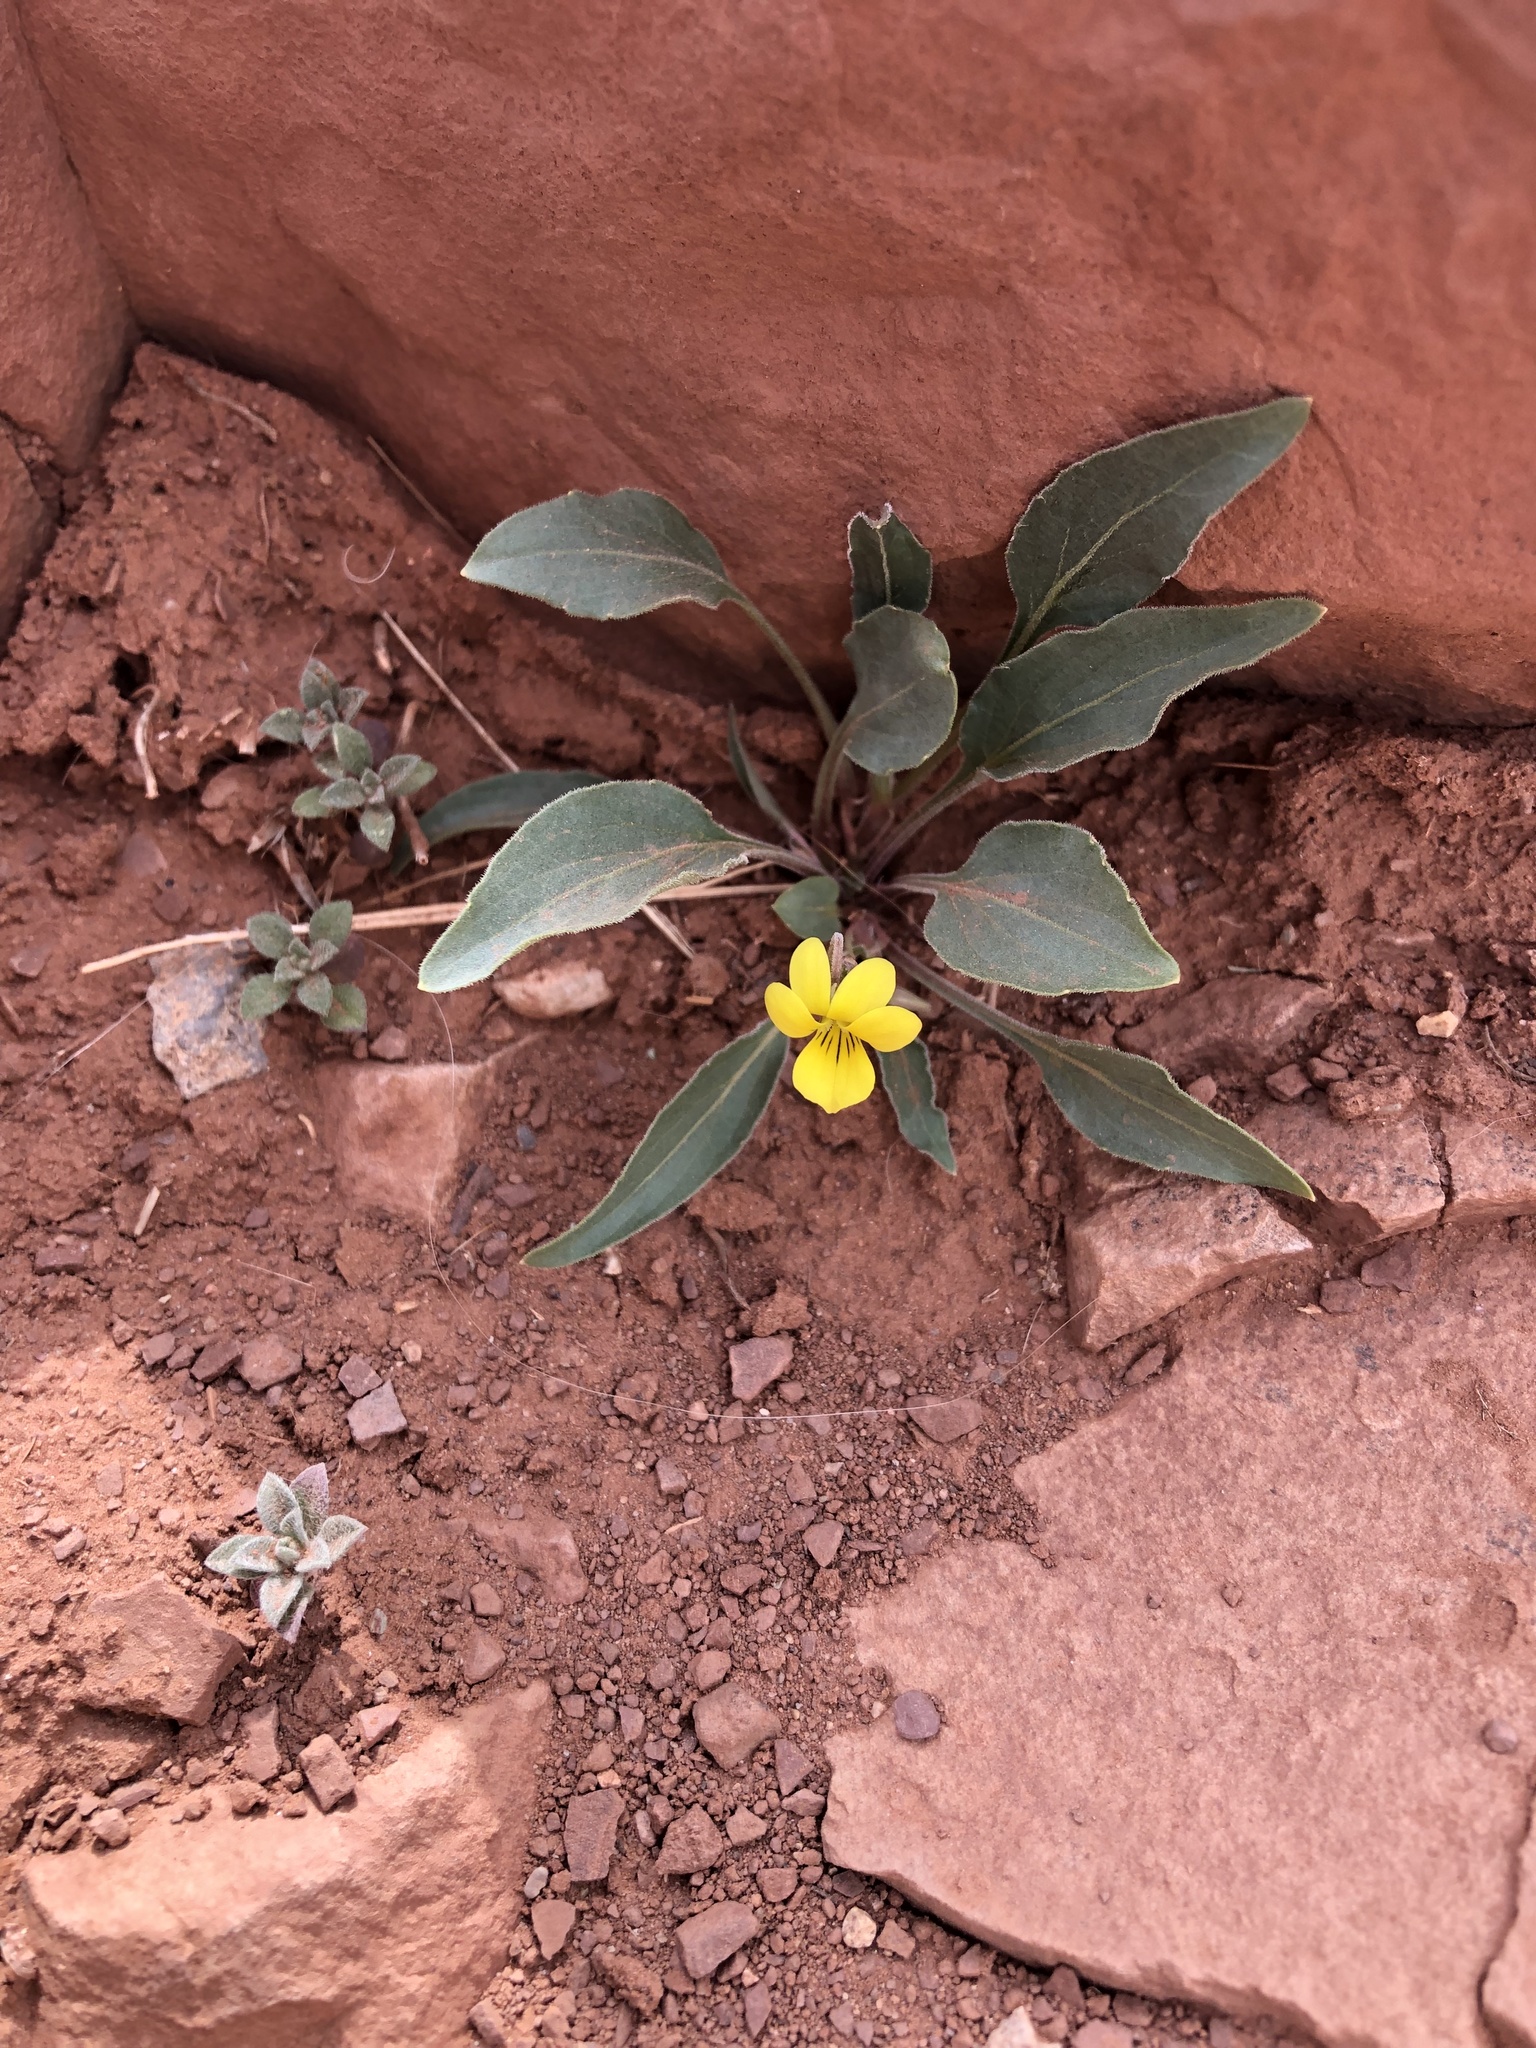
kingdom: Plantae
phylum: Tracheophyta
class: Magnoliopsida
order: Malpighiales
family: Violaceae
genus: Viola
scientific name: Viola nuttallii
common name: Yellow prairie violet
